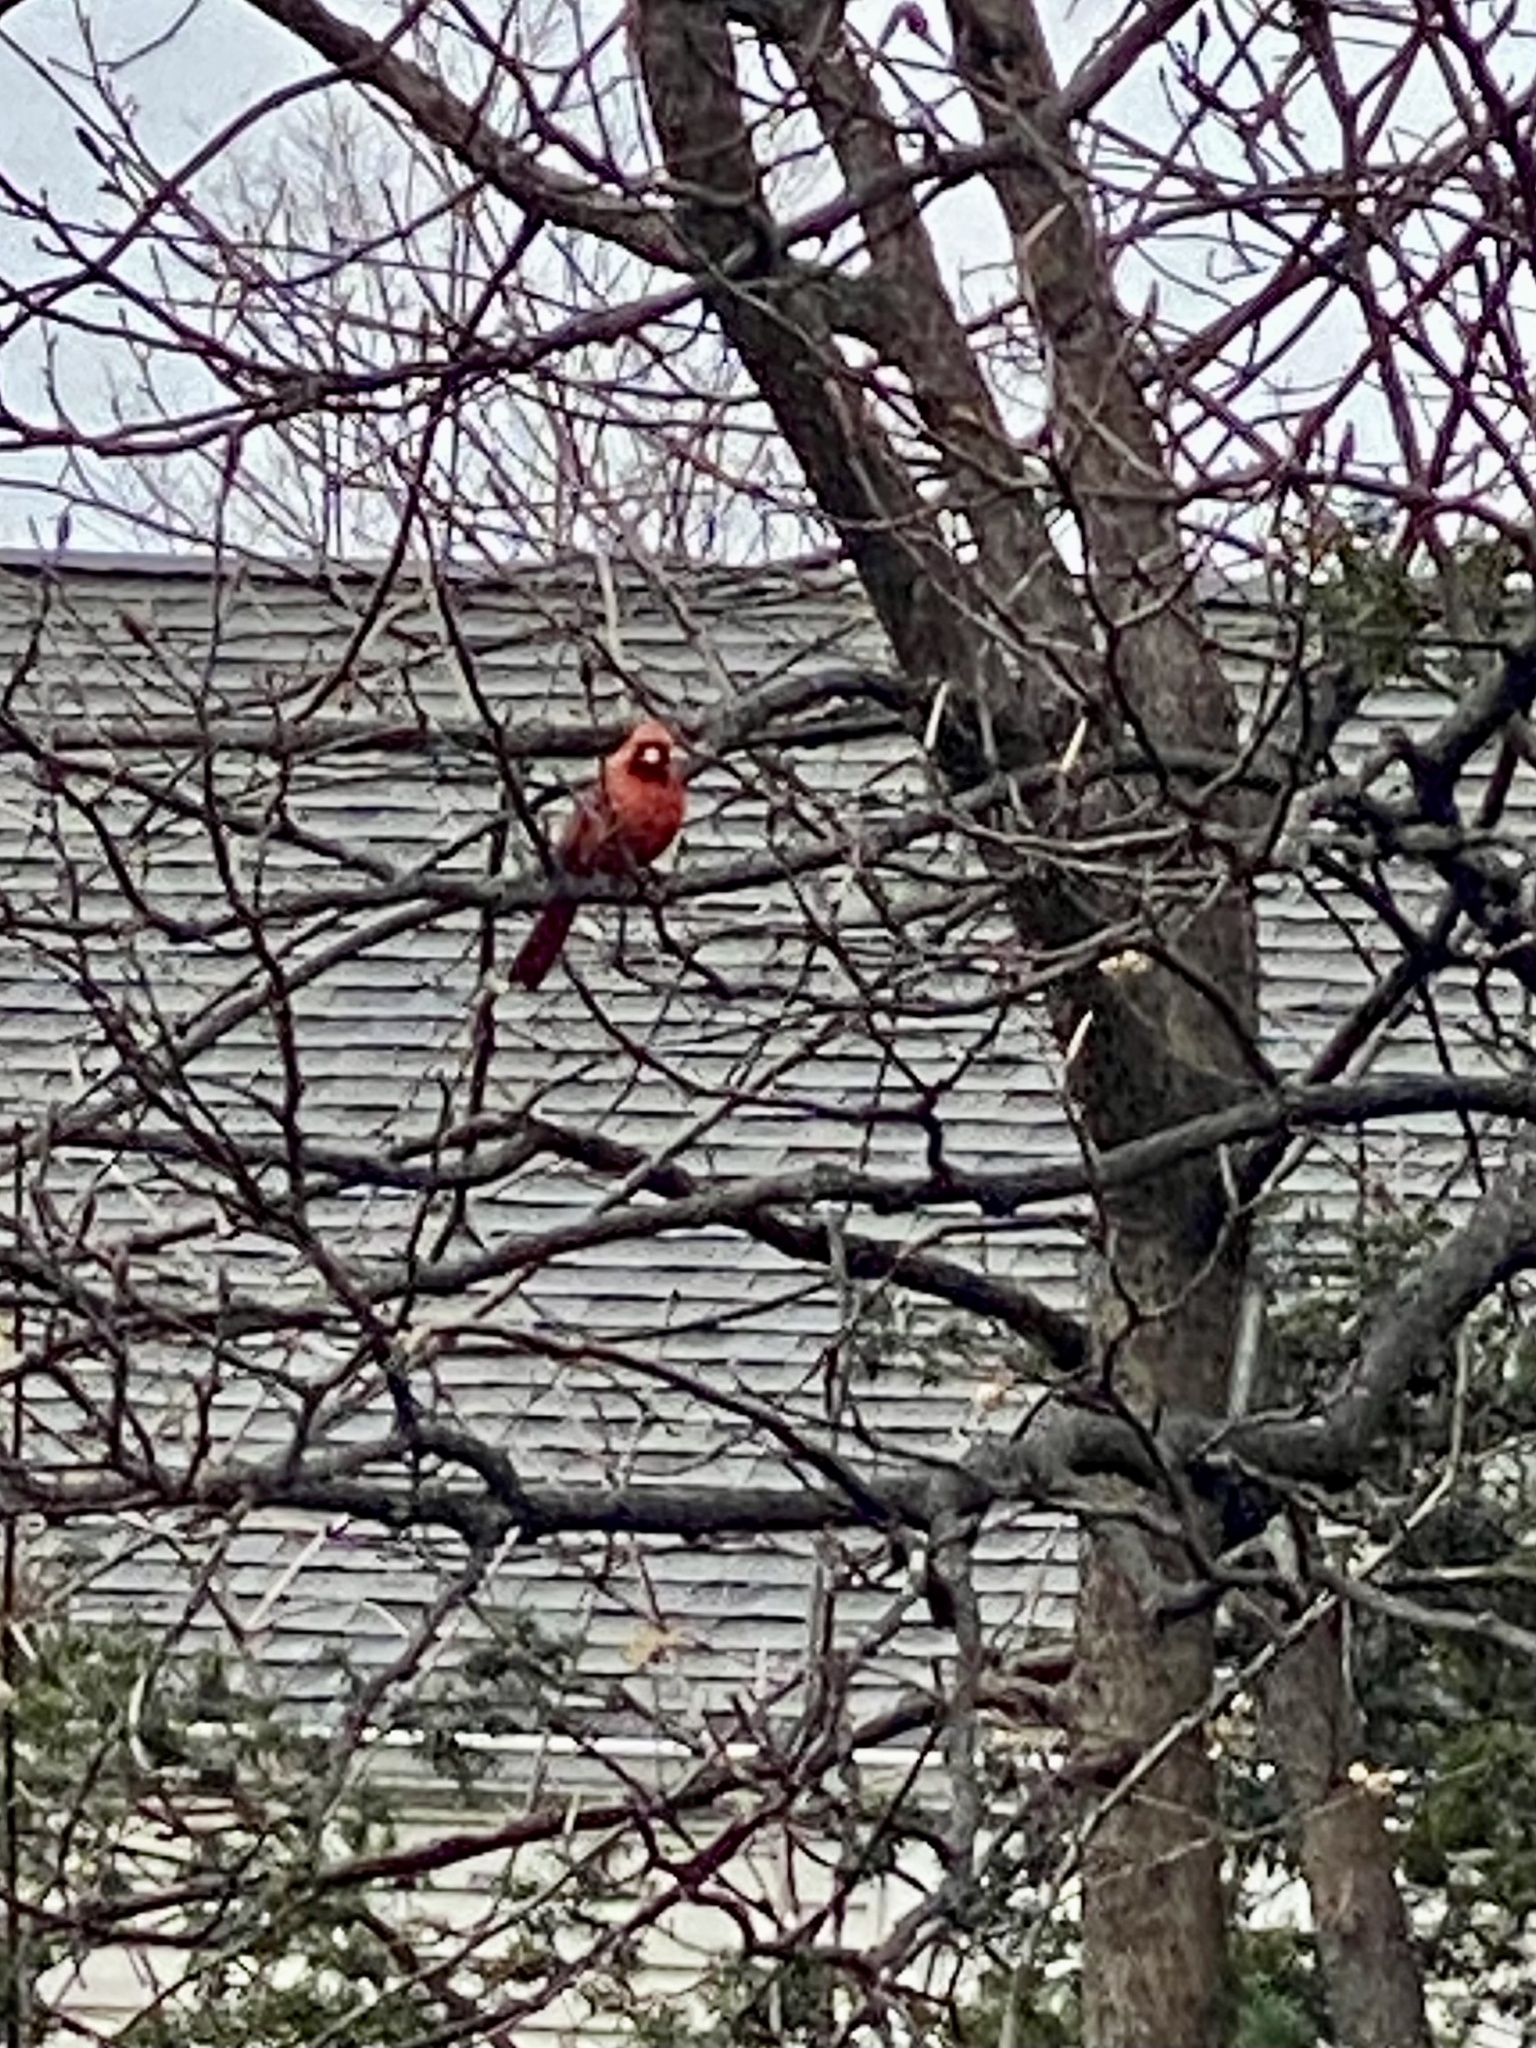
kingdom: Animalia
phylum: Chordata
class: Aves
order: Passeriformes
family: Cardinalidae
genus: Cardinalis
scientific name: Cardinalis cardinalis
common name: Northern cardinal
